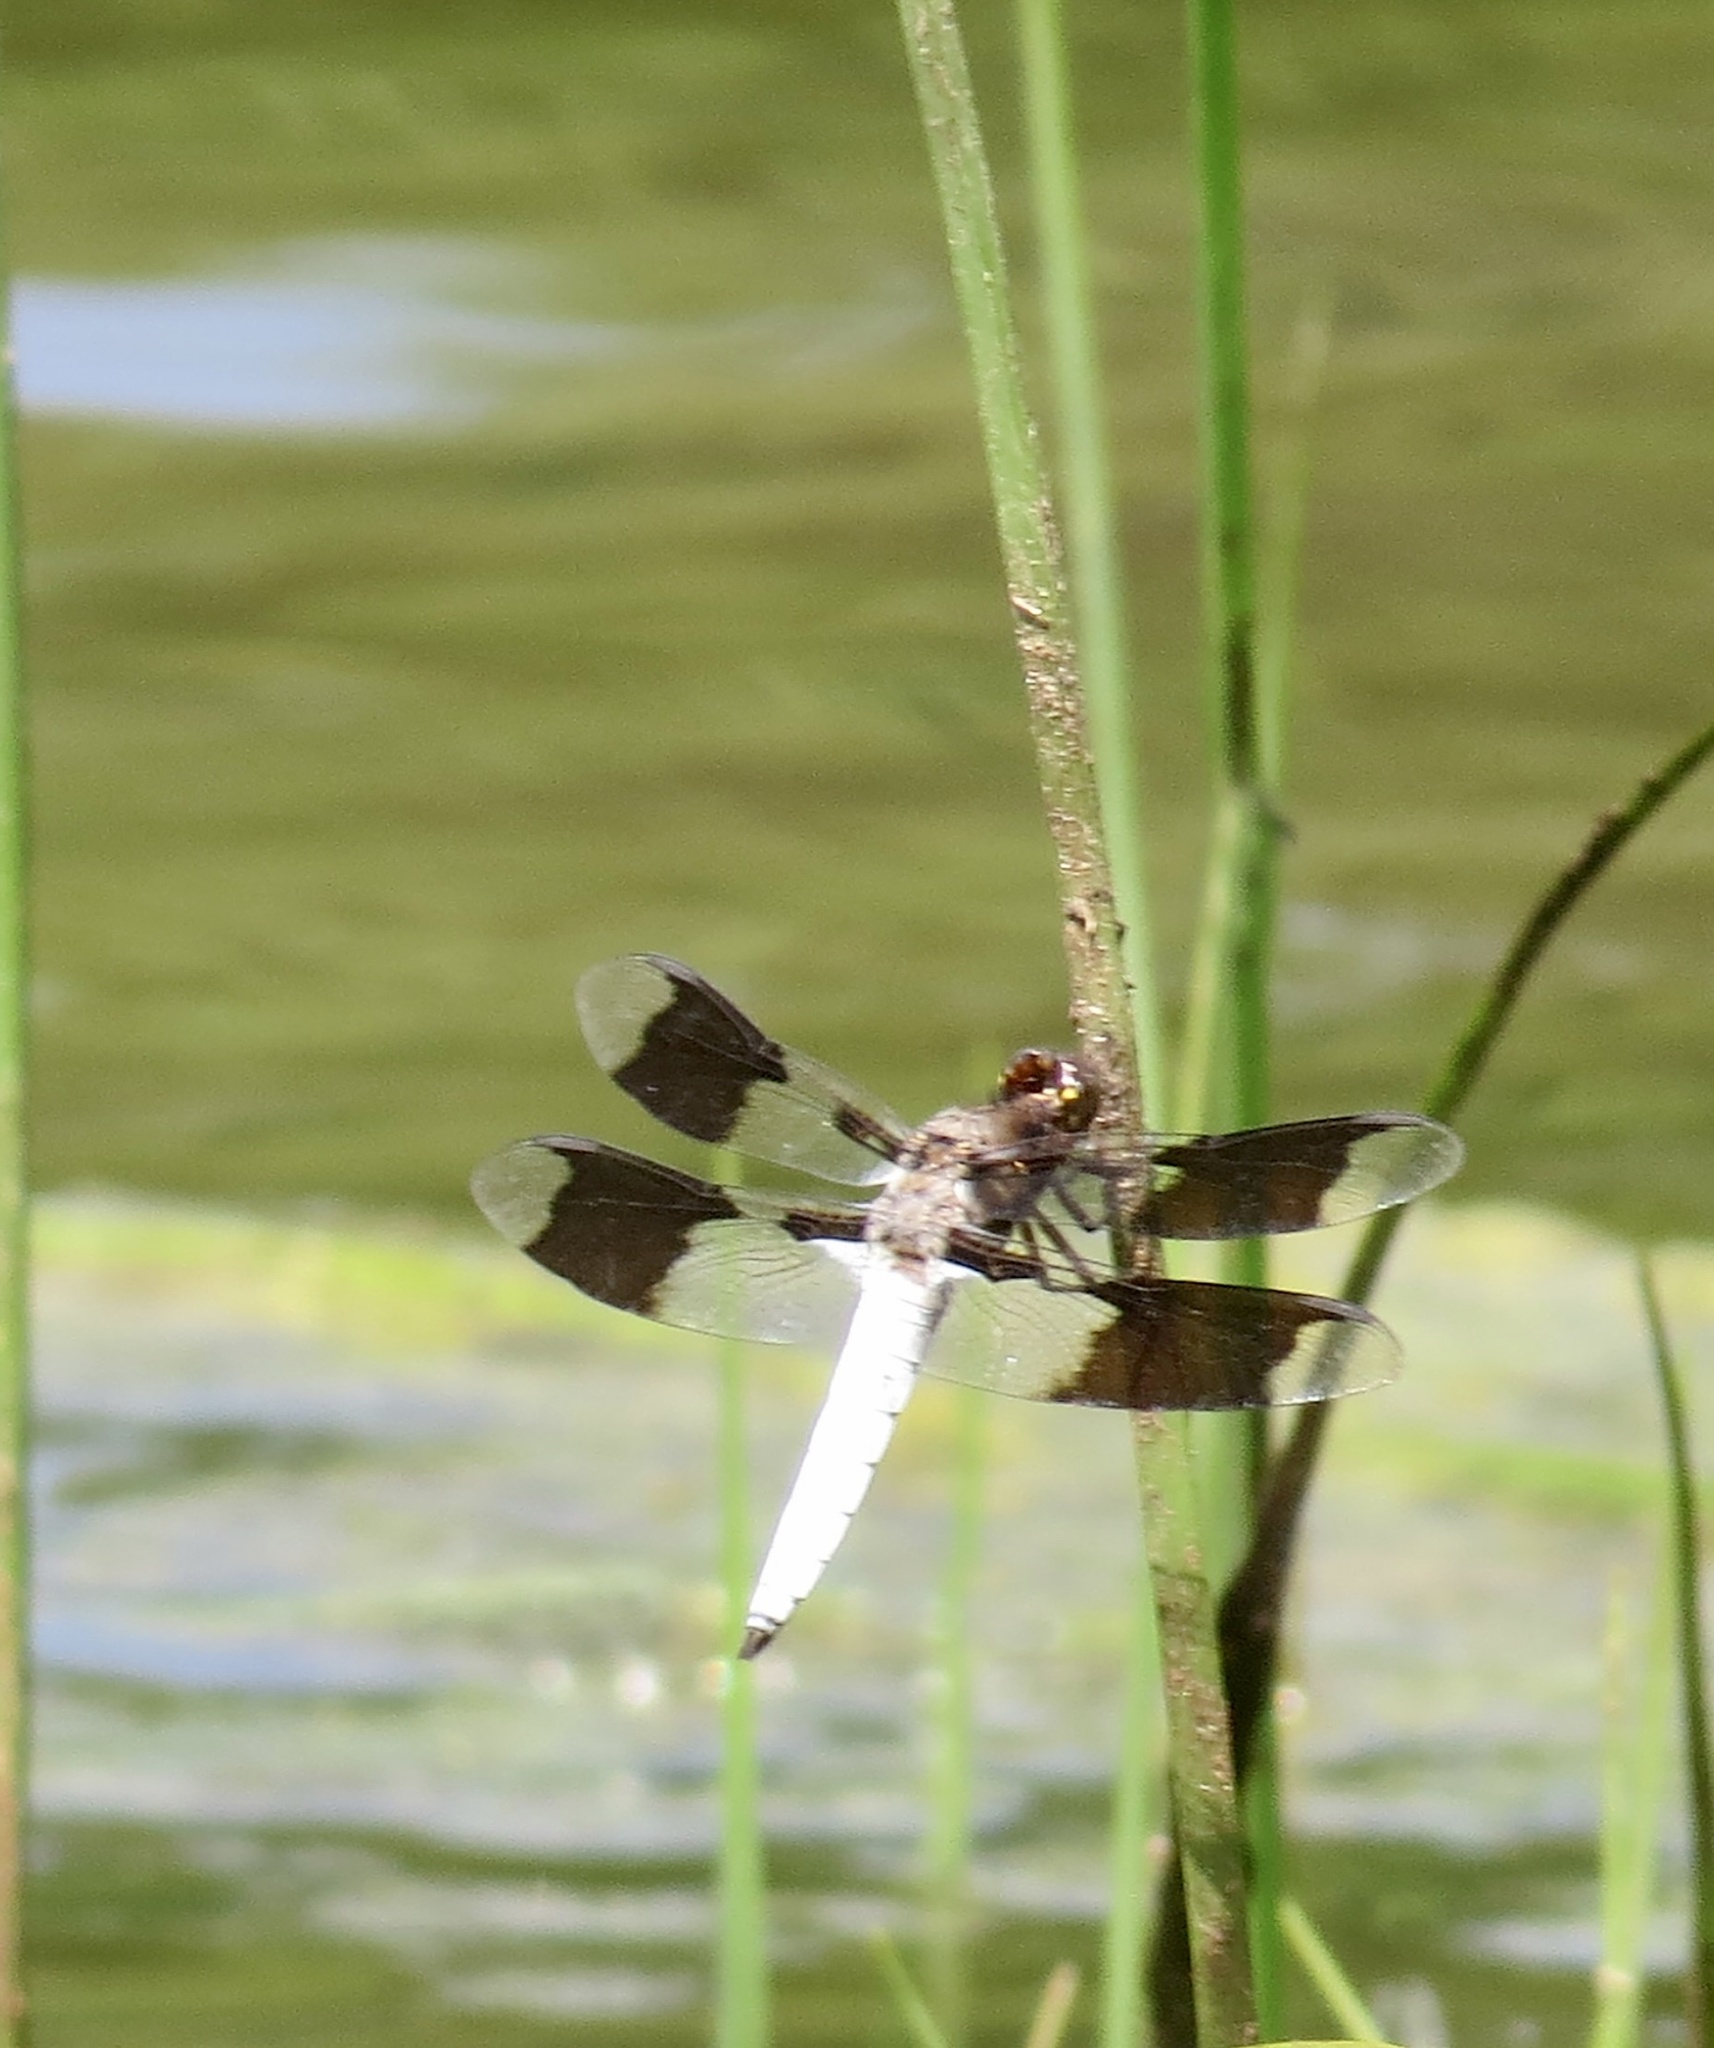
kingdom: Animalia
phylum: Arthropoda
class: Insecta
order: Odonata
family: Libellulidae
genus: Plathemis
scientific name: Plathemis lydia
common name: Common whitetail
